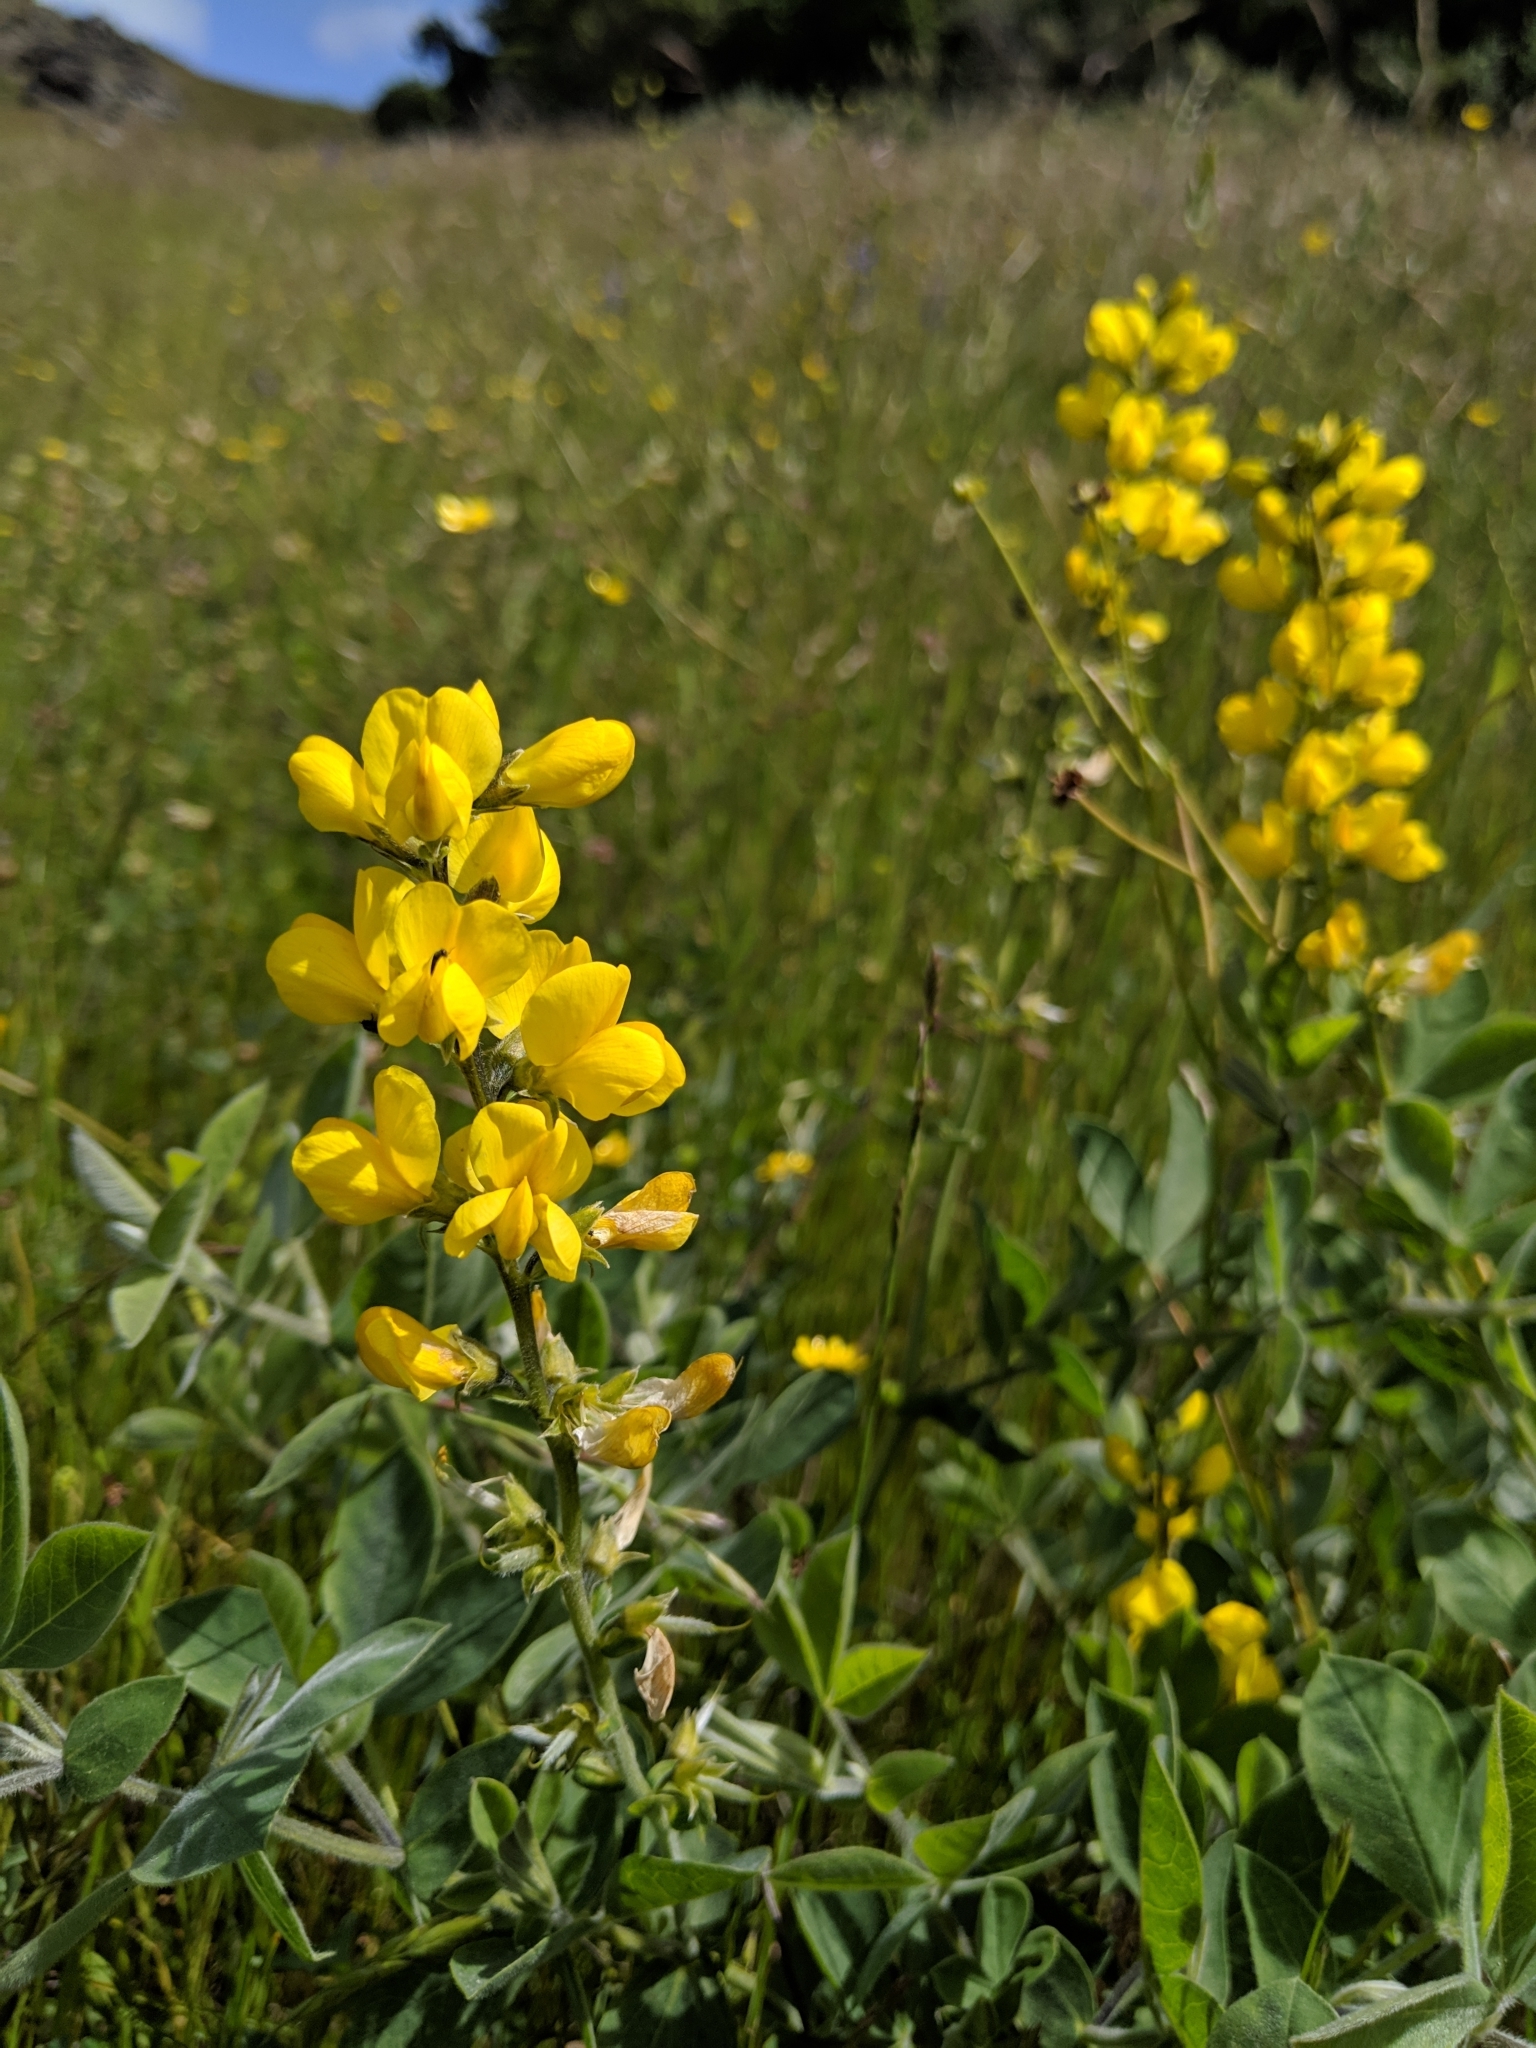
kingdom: Plantae
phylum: Tracheophyta
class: Magnoliopsida
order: Fabales
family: Fabaceae
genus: Thermopsis
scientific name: Thermopsis californica
